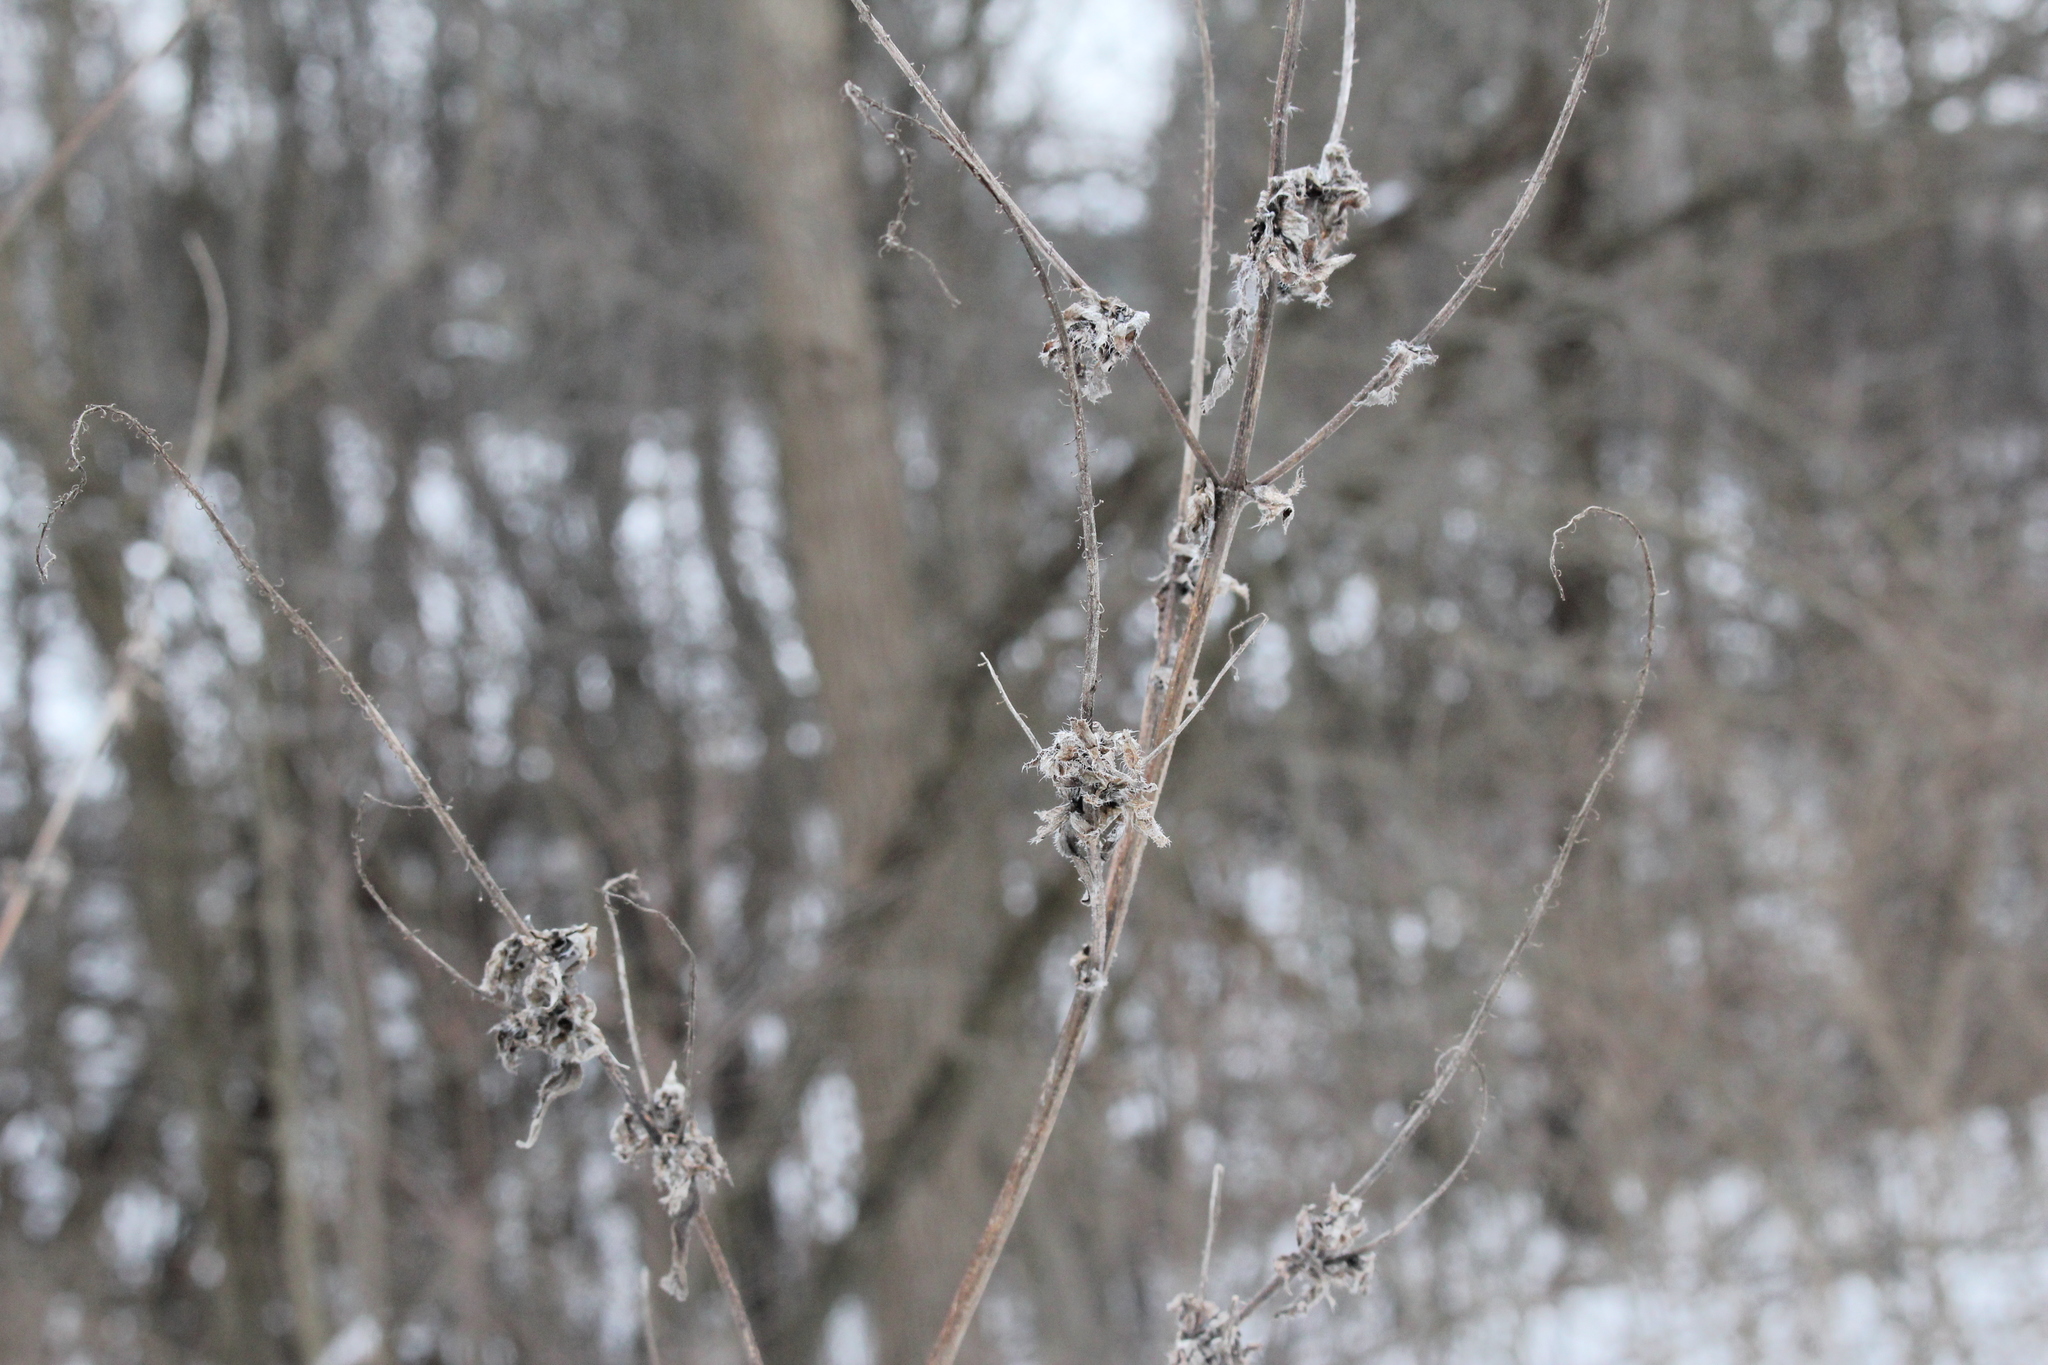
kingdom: Plantae
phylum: Tracheophyta
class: Magnoliopsida
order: Asterales
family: Asteraceae
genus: Ambrosia
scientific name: Ambrosia trifida
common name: Giant ragweed
